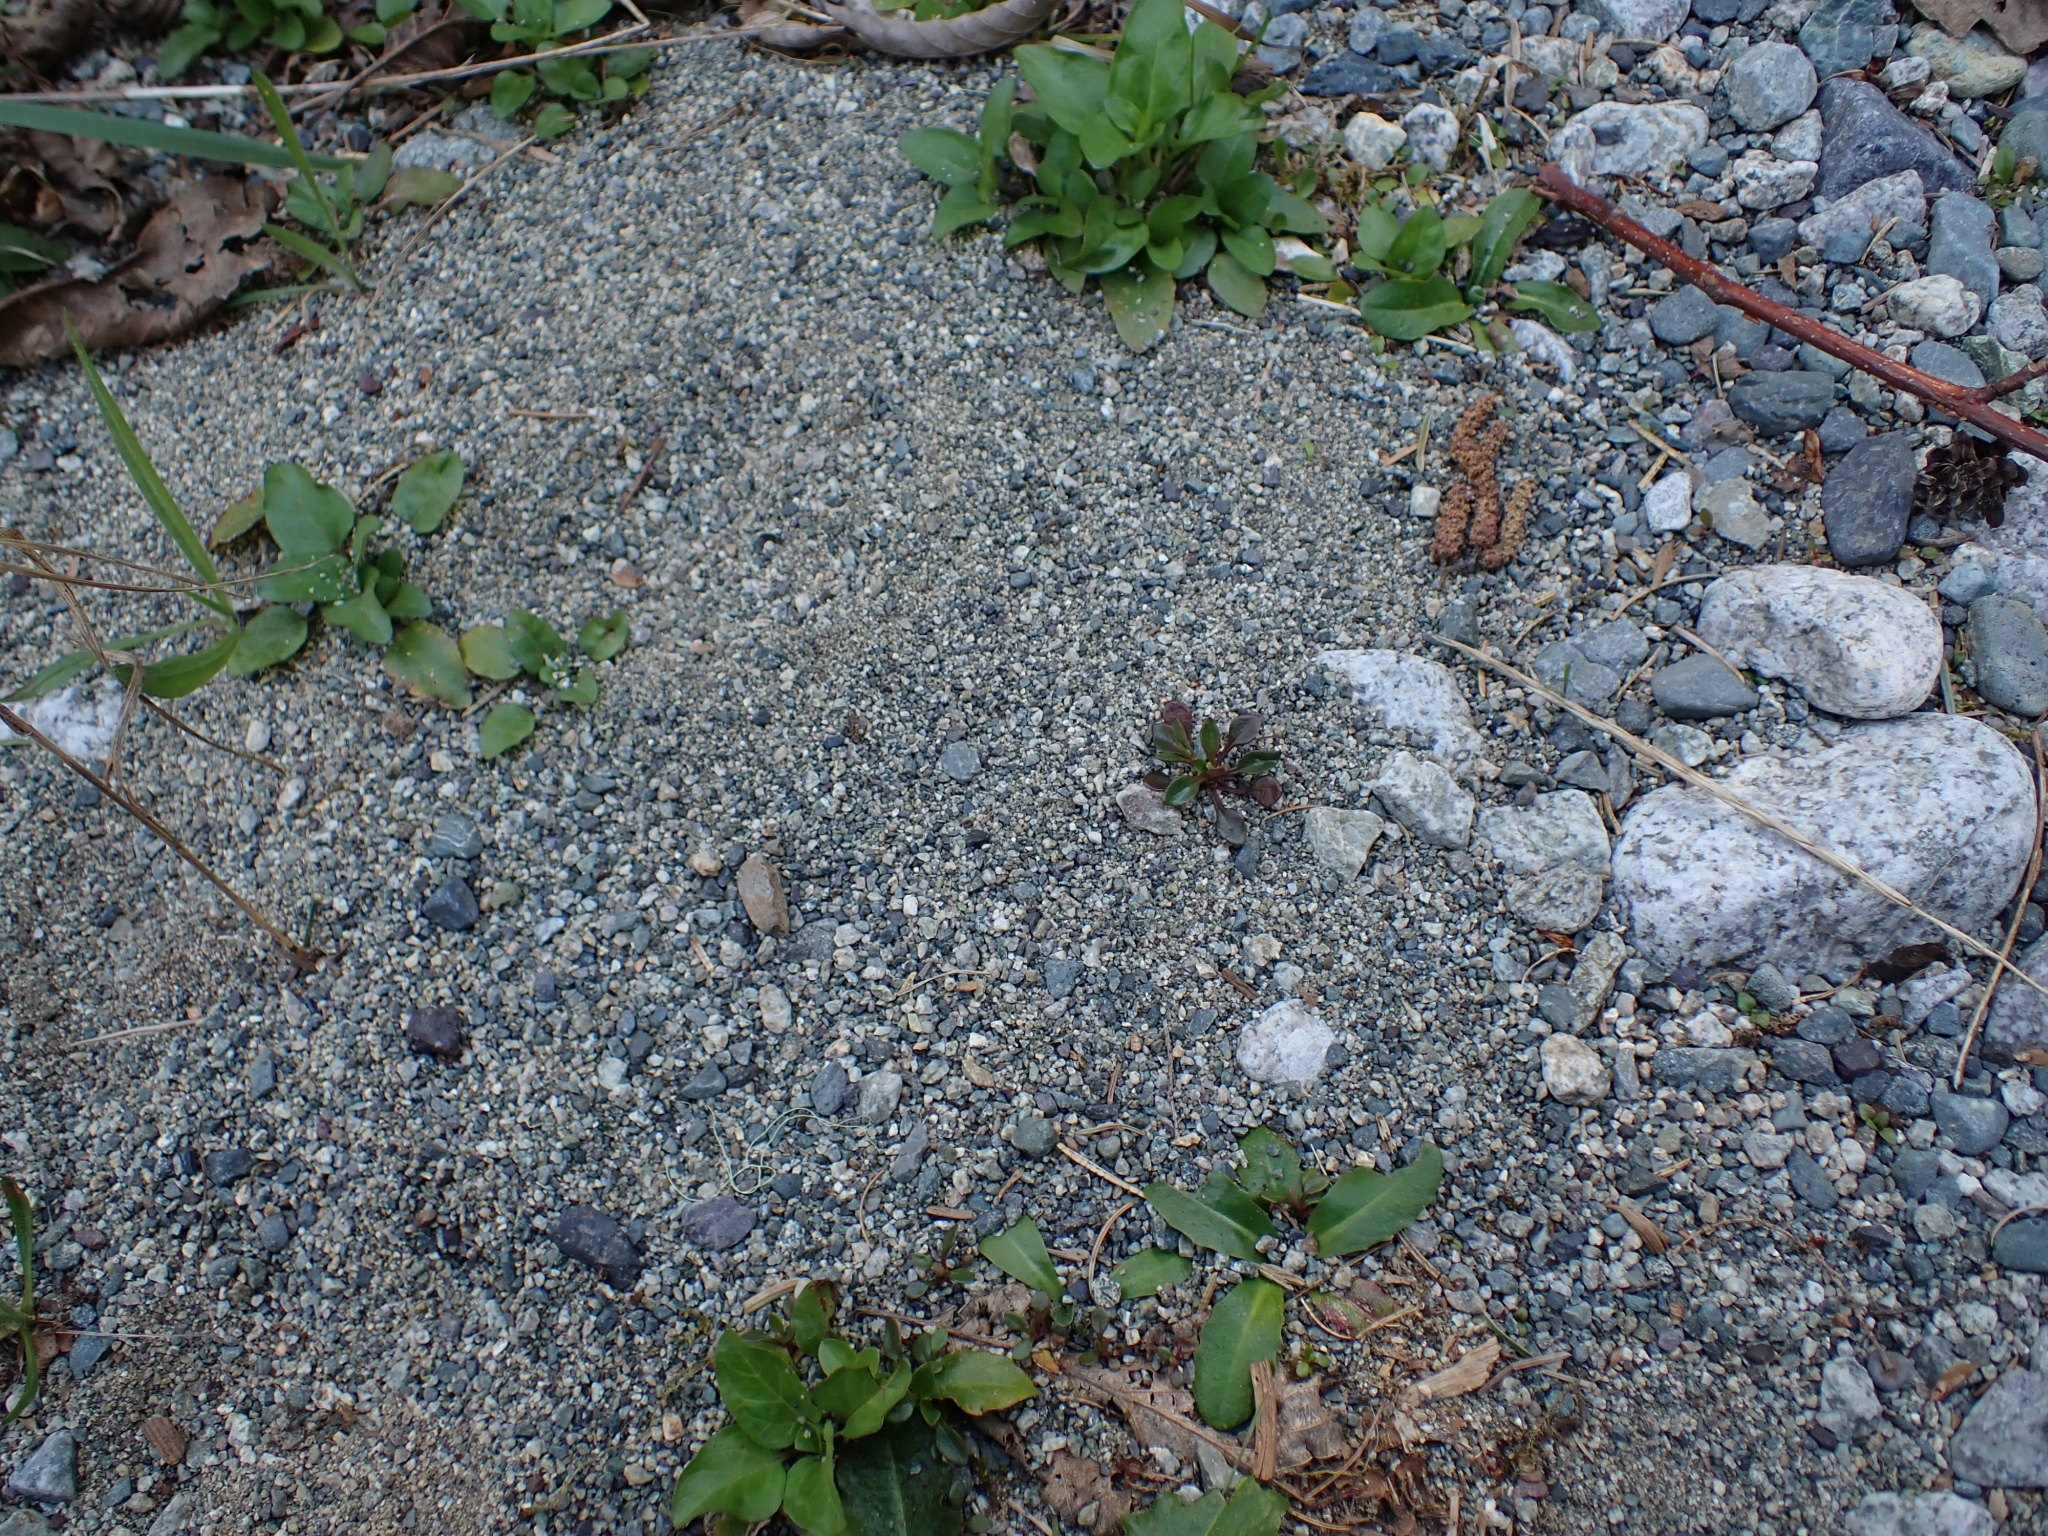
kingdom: Plantae
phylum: Tracheophyta
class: Magnoliopsida
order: Caryophyllales
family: Montiaceae
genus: Montia
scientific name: Montia parvifolia
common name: Small-leaved blinks
